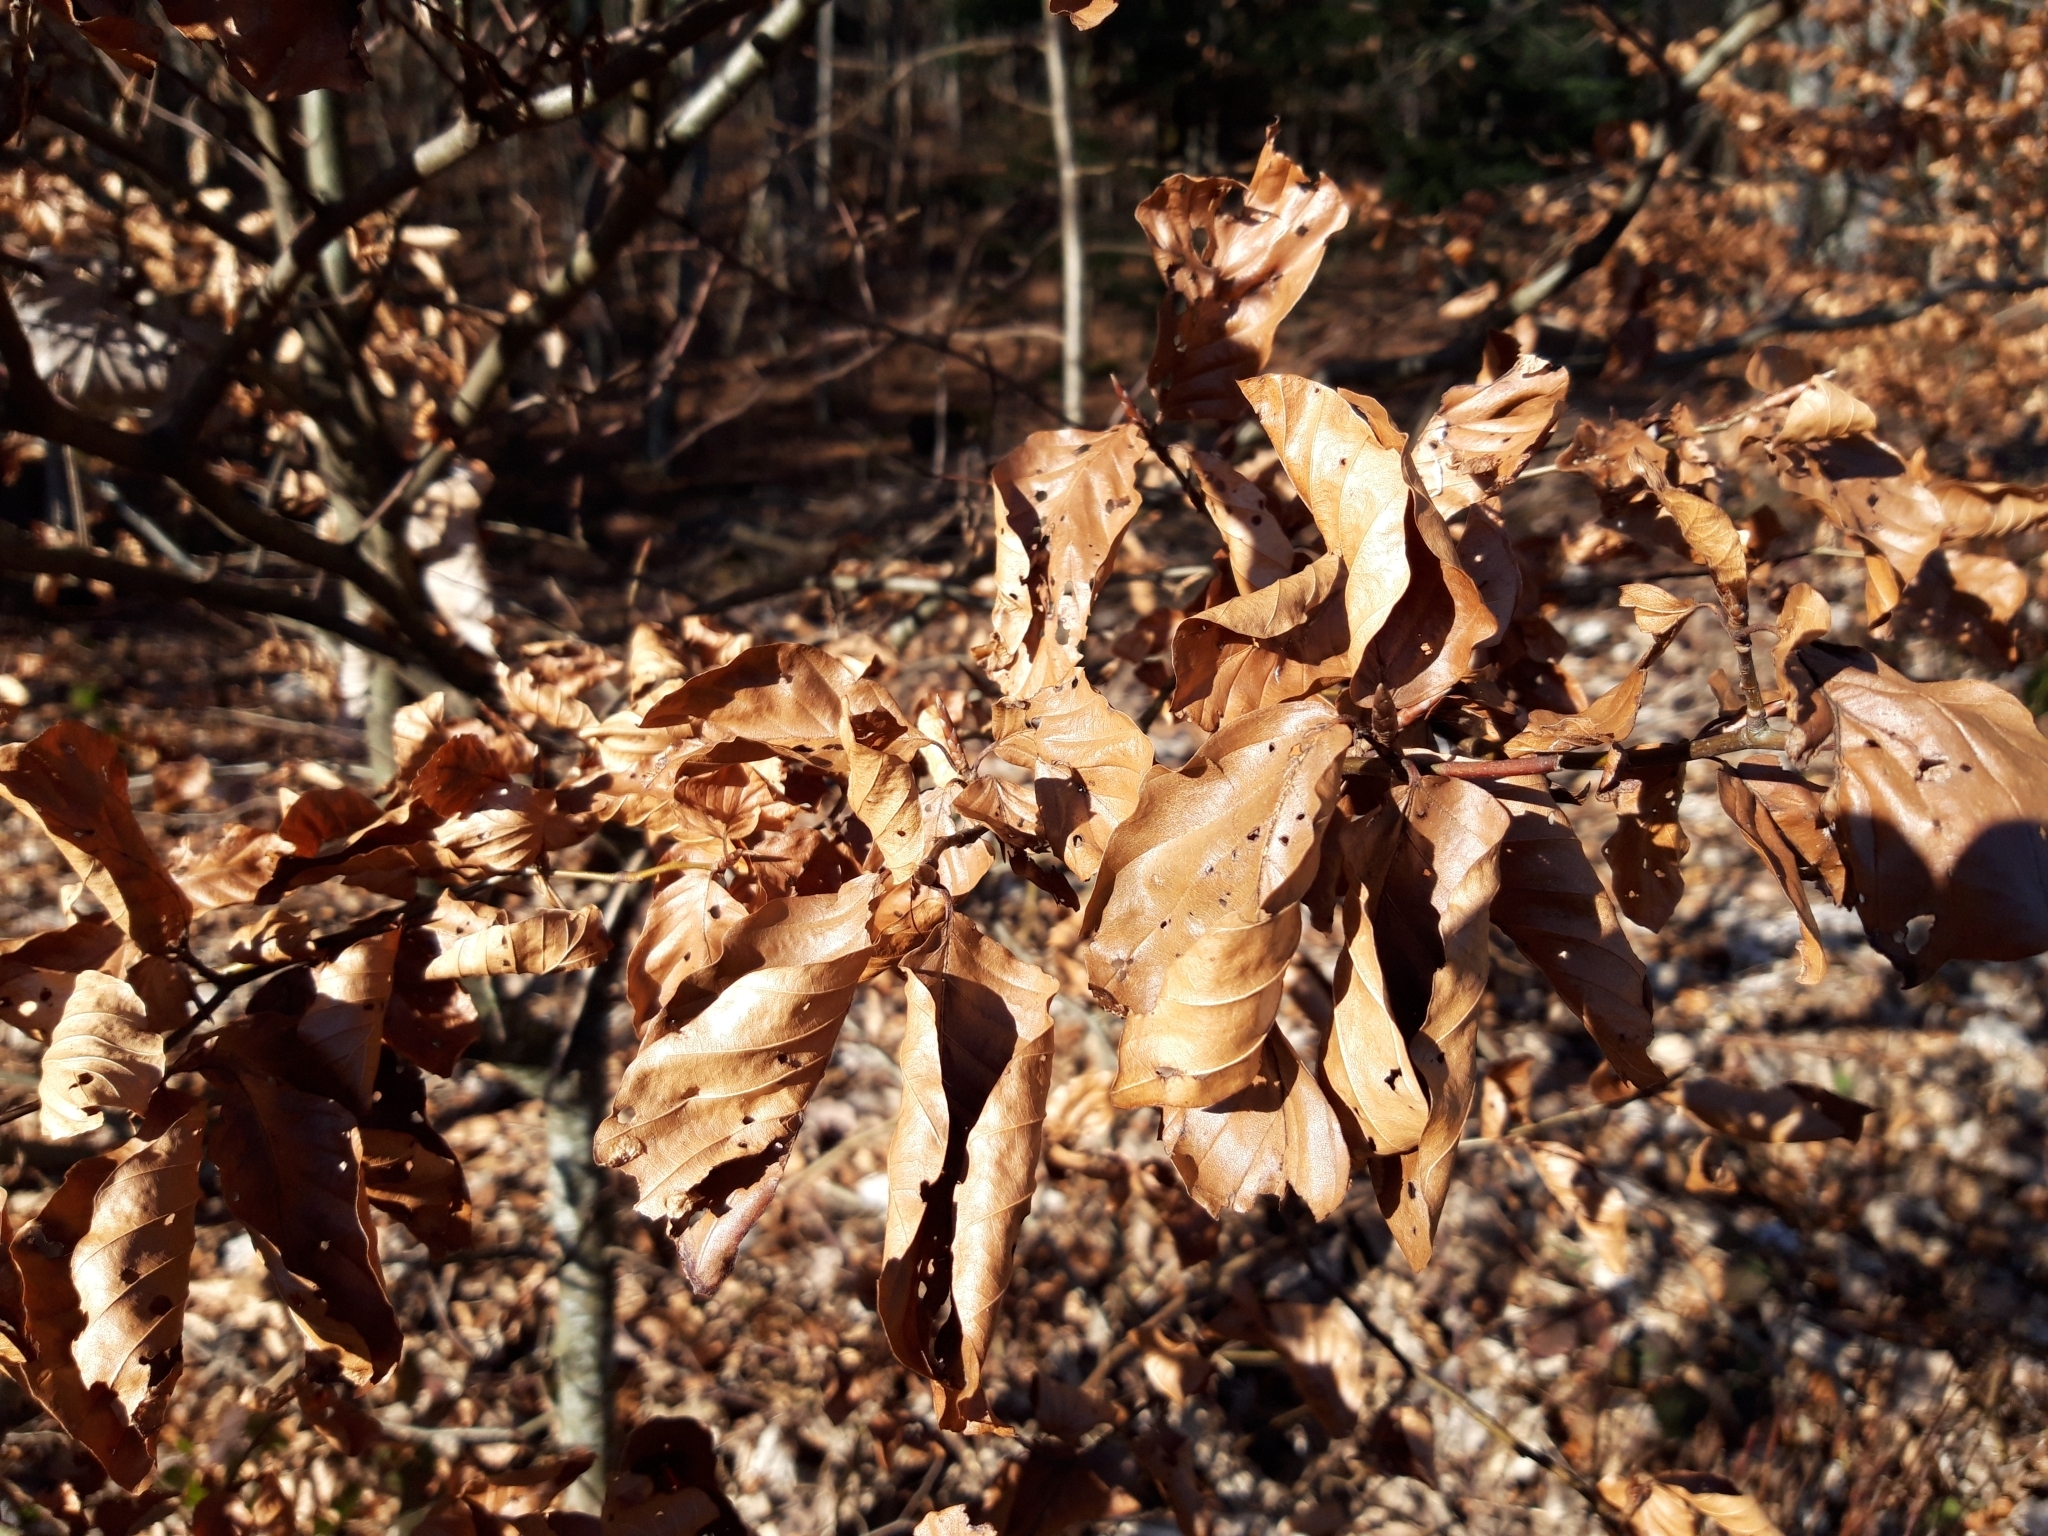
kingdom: Plantae
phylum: Tracheophyta
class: Magnoliopsida
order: Fagales
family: Fagaceae
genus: Fagus
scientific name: Fagus sylvatica
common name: Beech
